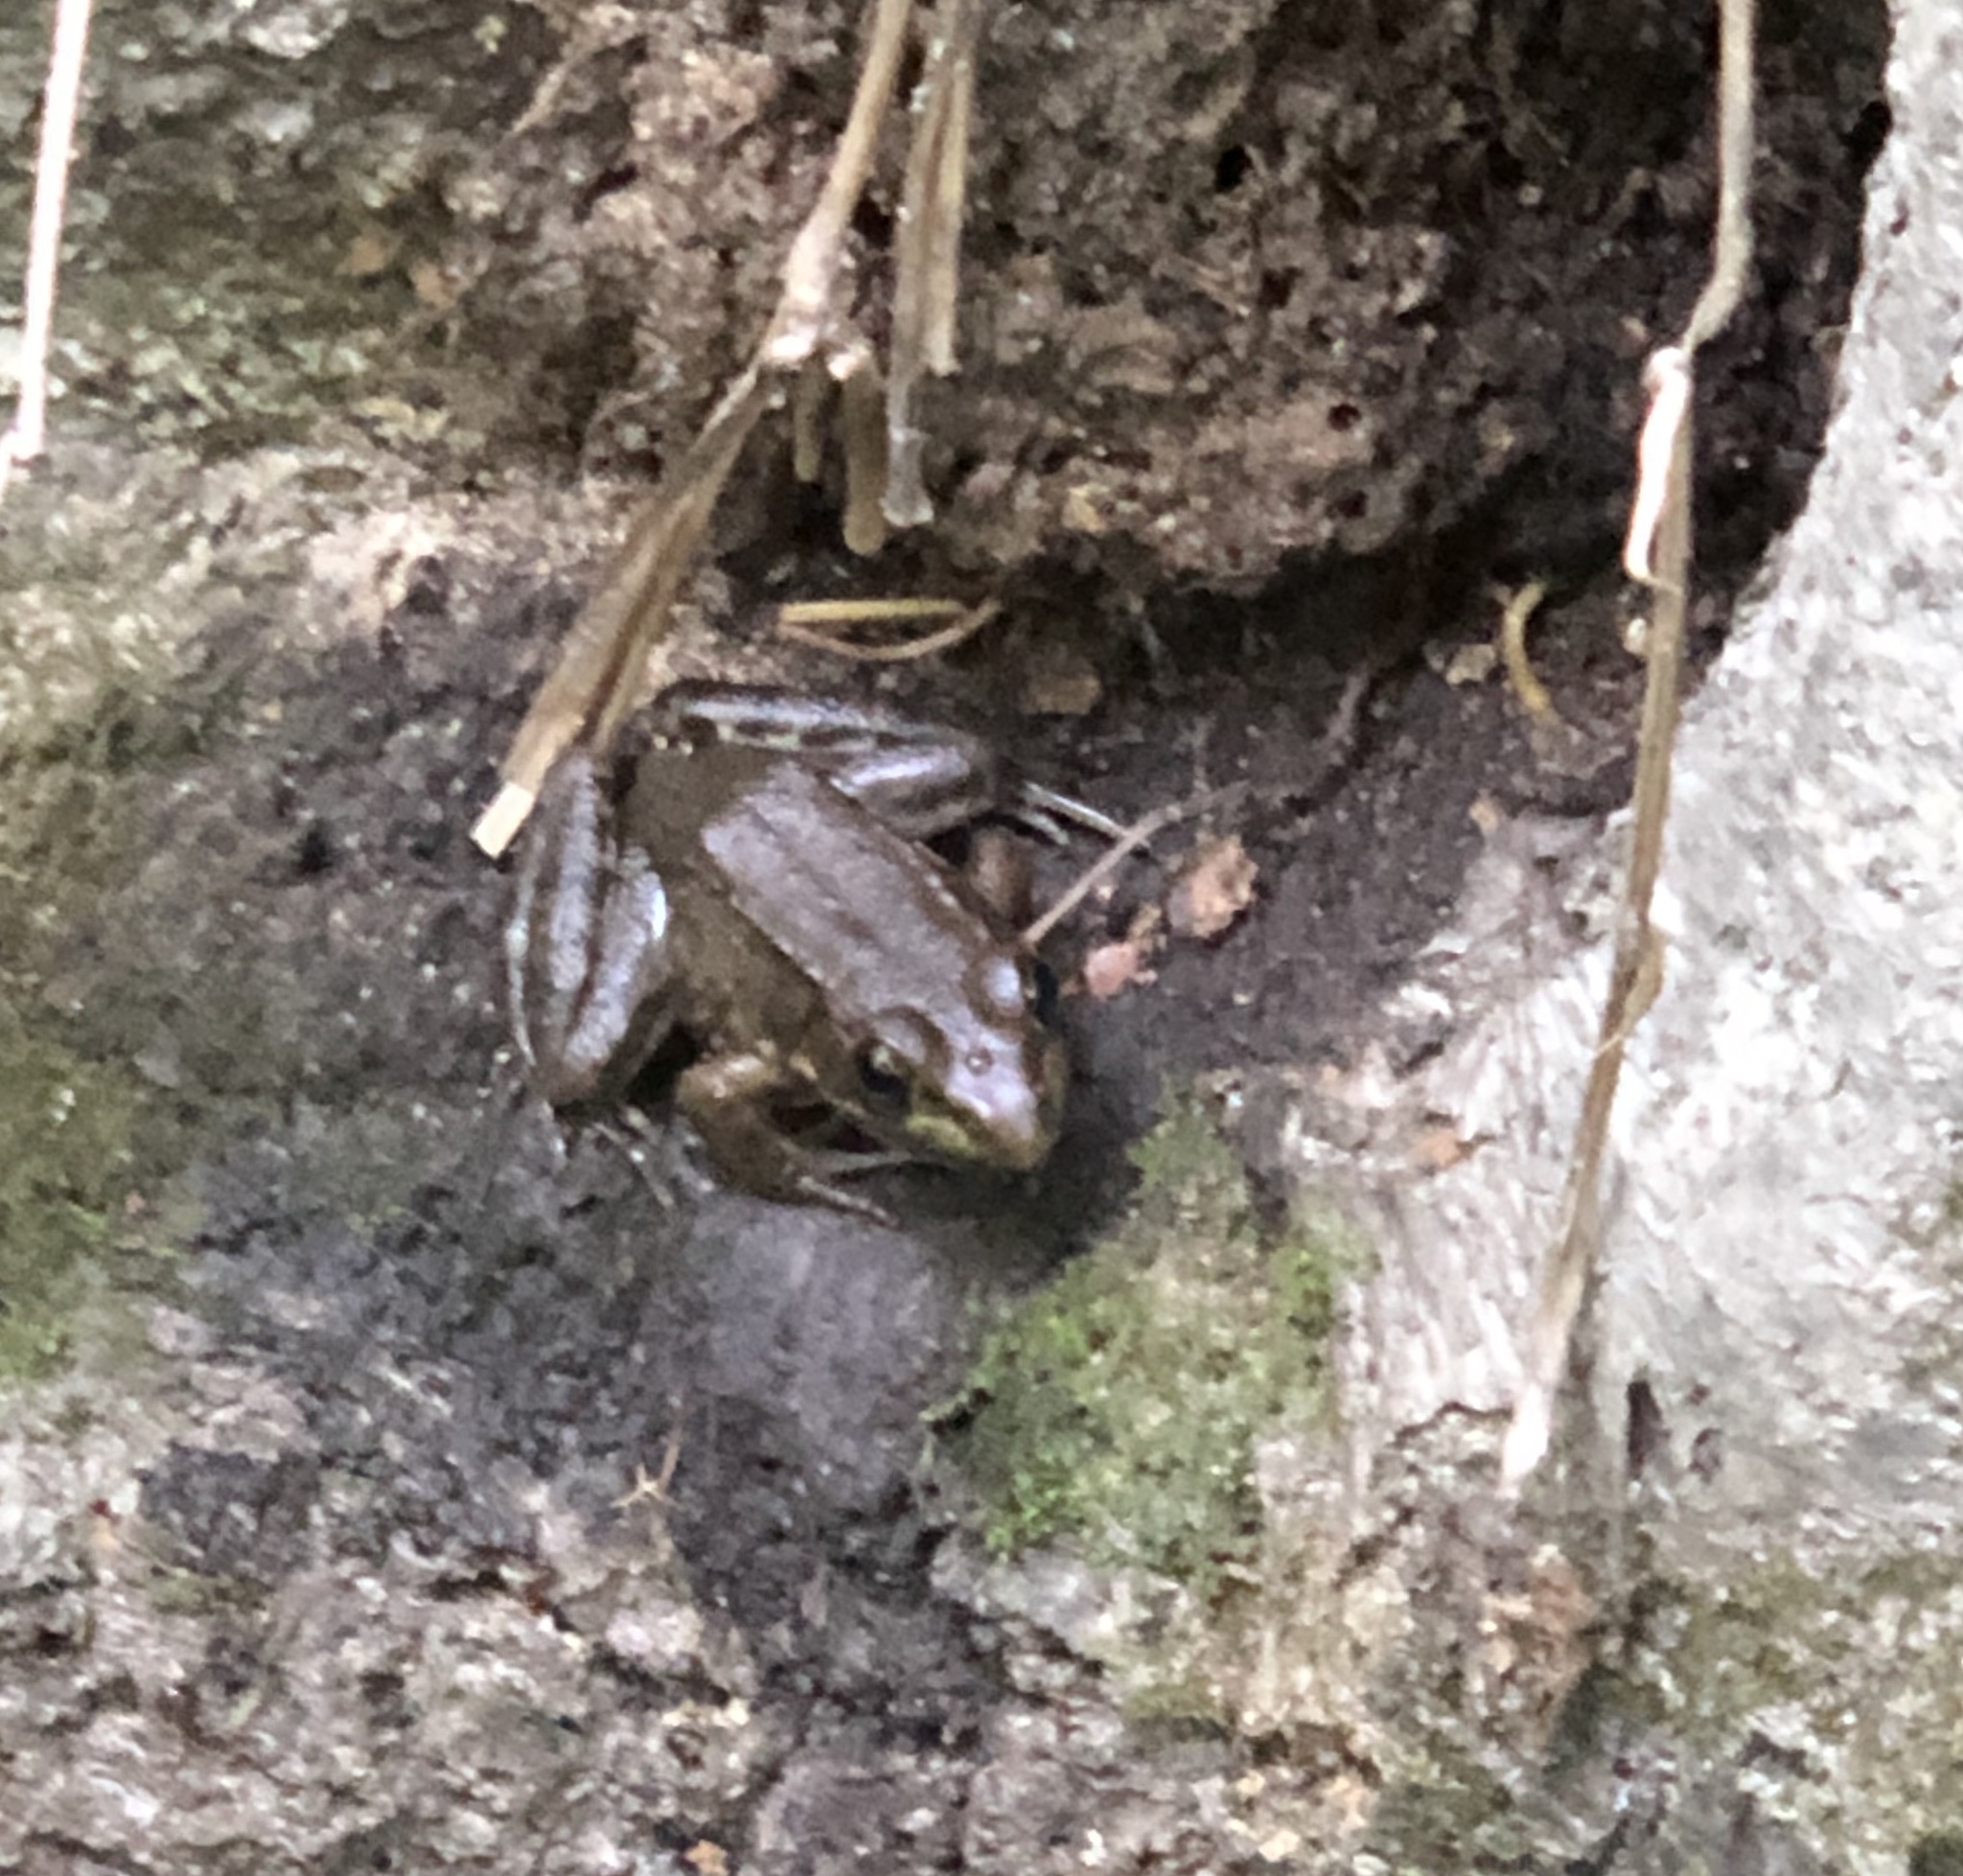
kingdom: Animalia
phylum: Chordata
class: Amphibia
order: Anura
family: Ranidae
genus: Lithobates
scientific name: Lithobates clamitans
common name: Green frog
